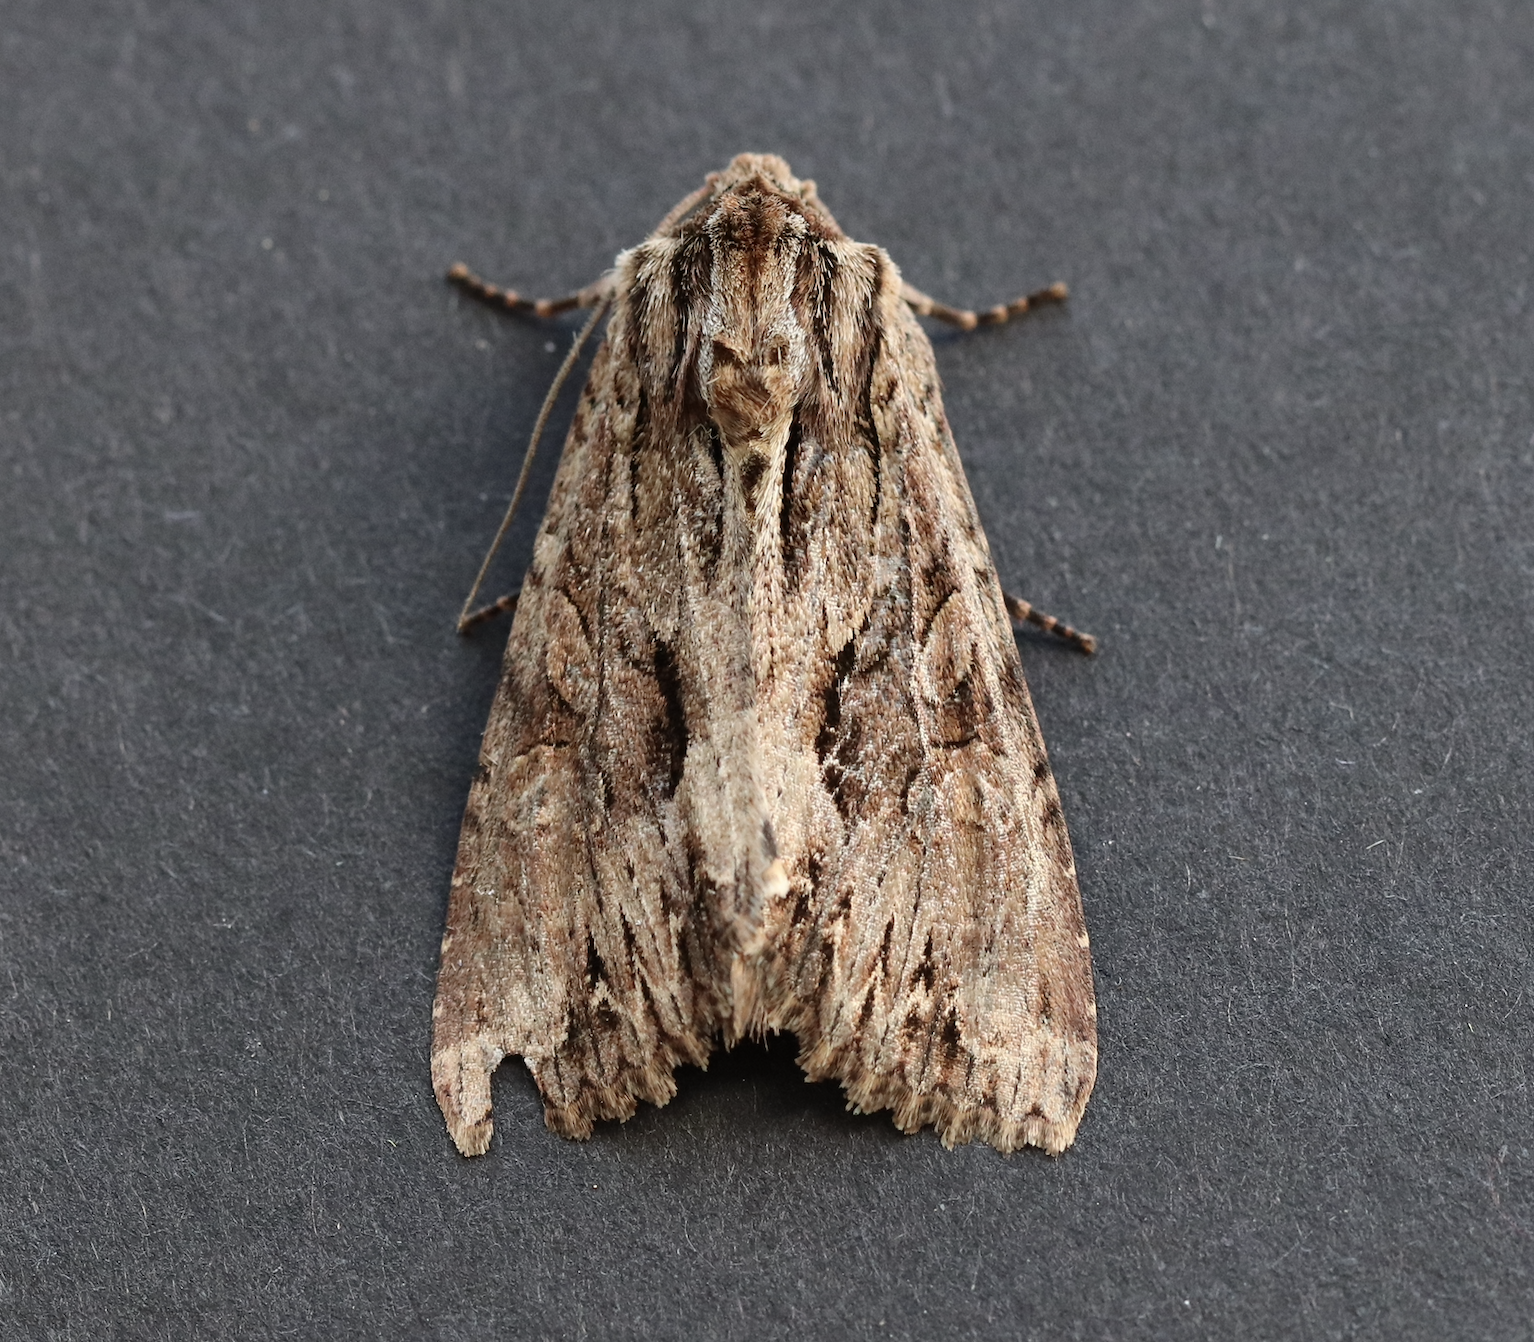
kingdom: Animalia
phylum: Arthropoda
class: Insecta
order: Lepidoptera
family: Noctuidae
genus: Apamea
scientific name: Apamea monoglypha
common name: Dark arches
